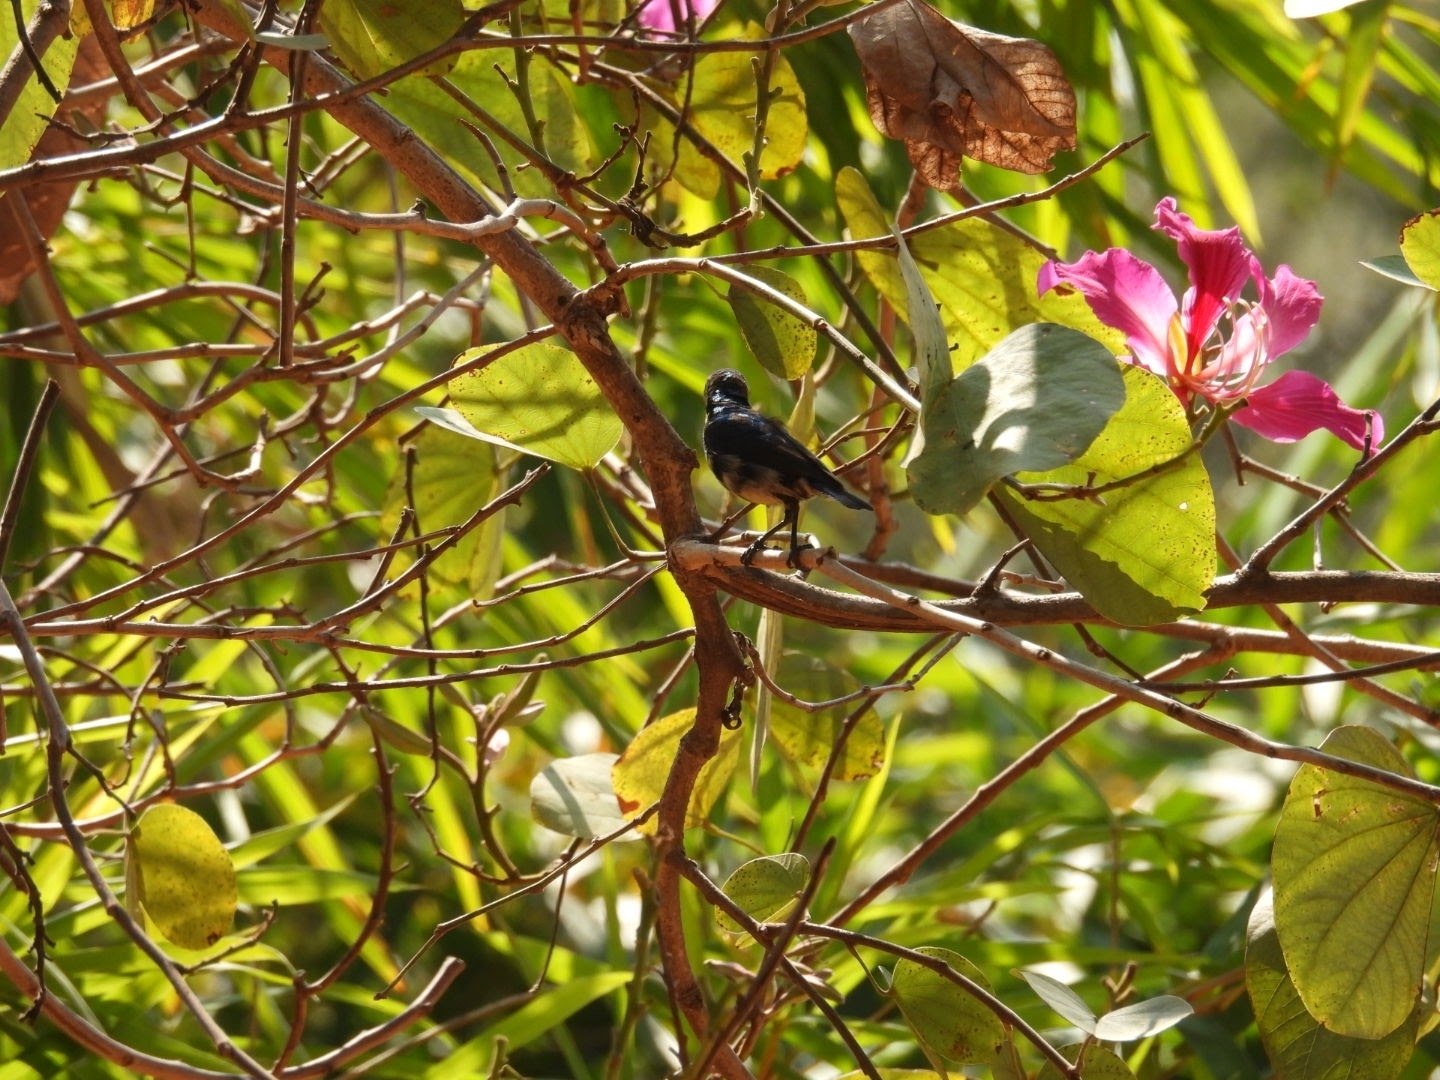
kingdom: Animalia
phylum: Chordata
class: Aves
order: Passeriformes
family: Nectariniidae
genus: Cinnyris
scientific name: Cinnyris asiaticus
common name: Purple sunbird
